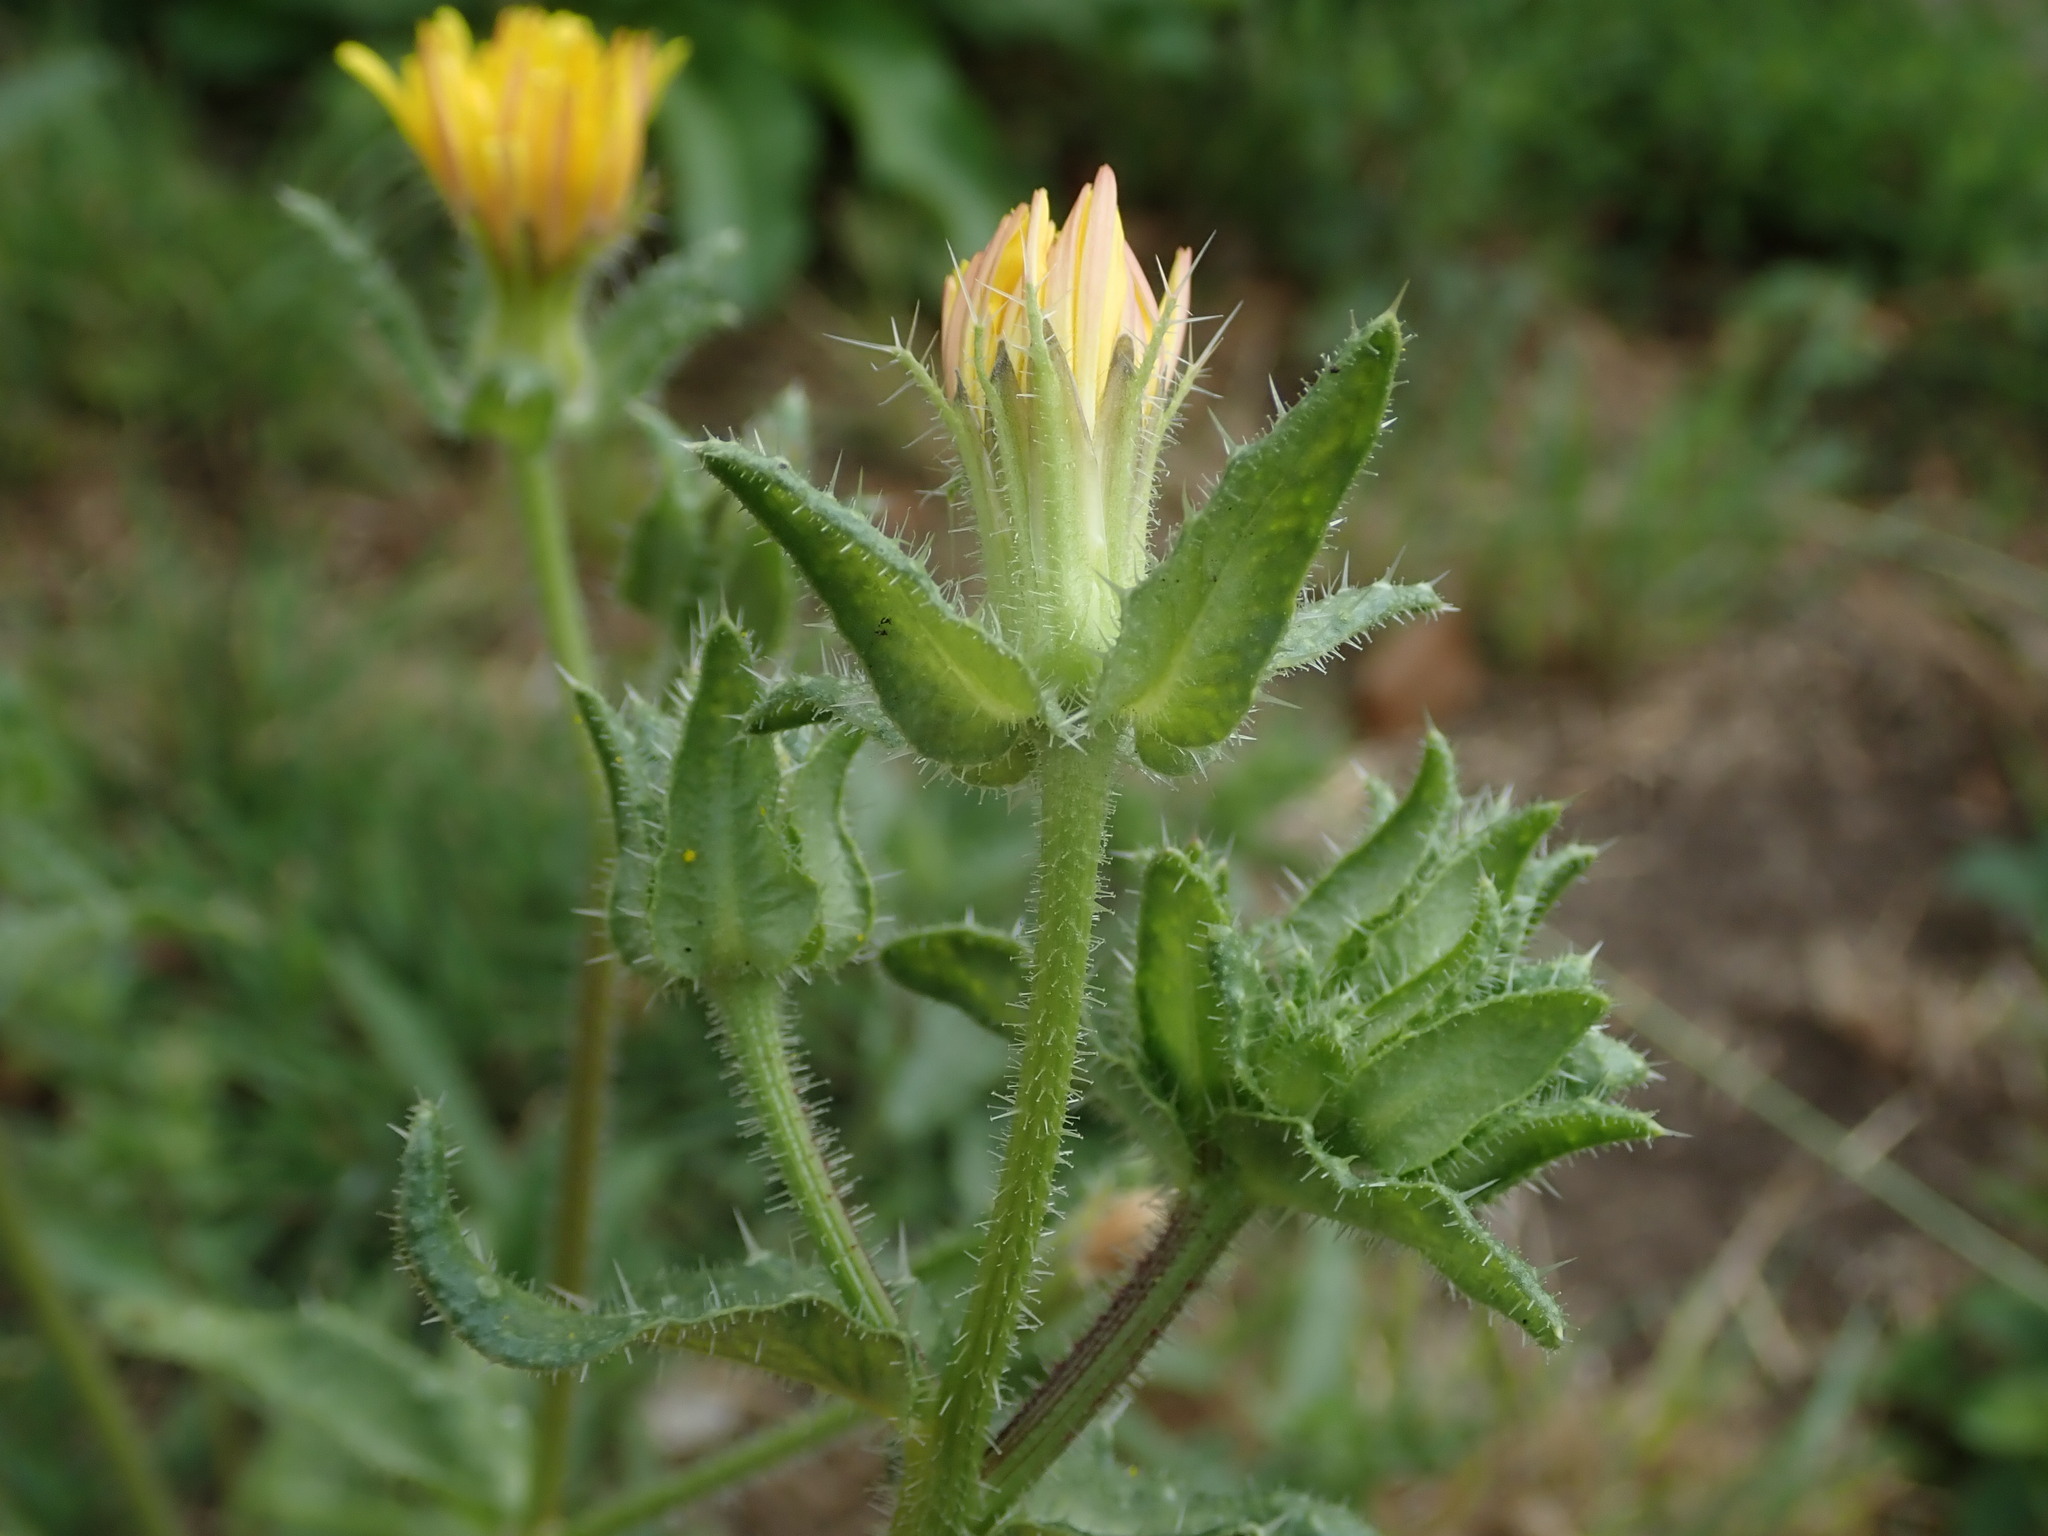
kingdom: Plantae
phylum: Tracheophyta
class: Magnoliopsida
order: Asterales
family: Asteraceae
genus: Helminthotheca
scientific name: Helminthotheca echioides
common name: Ox-tongue
